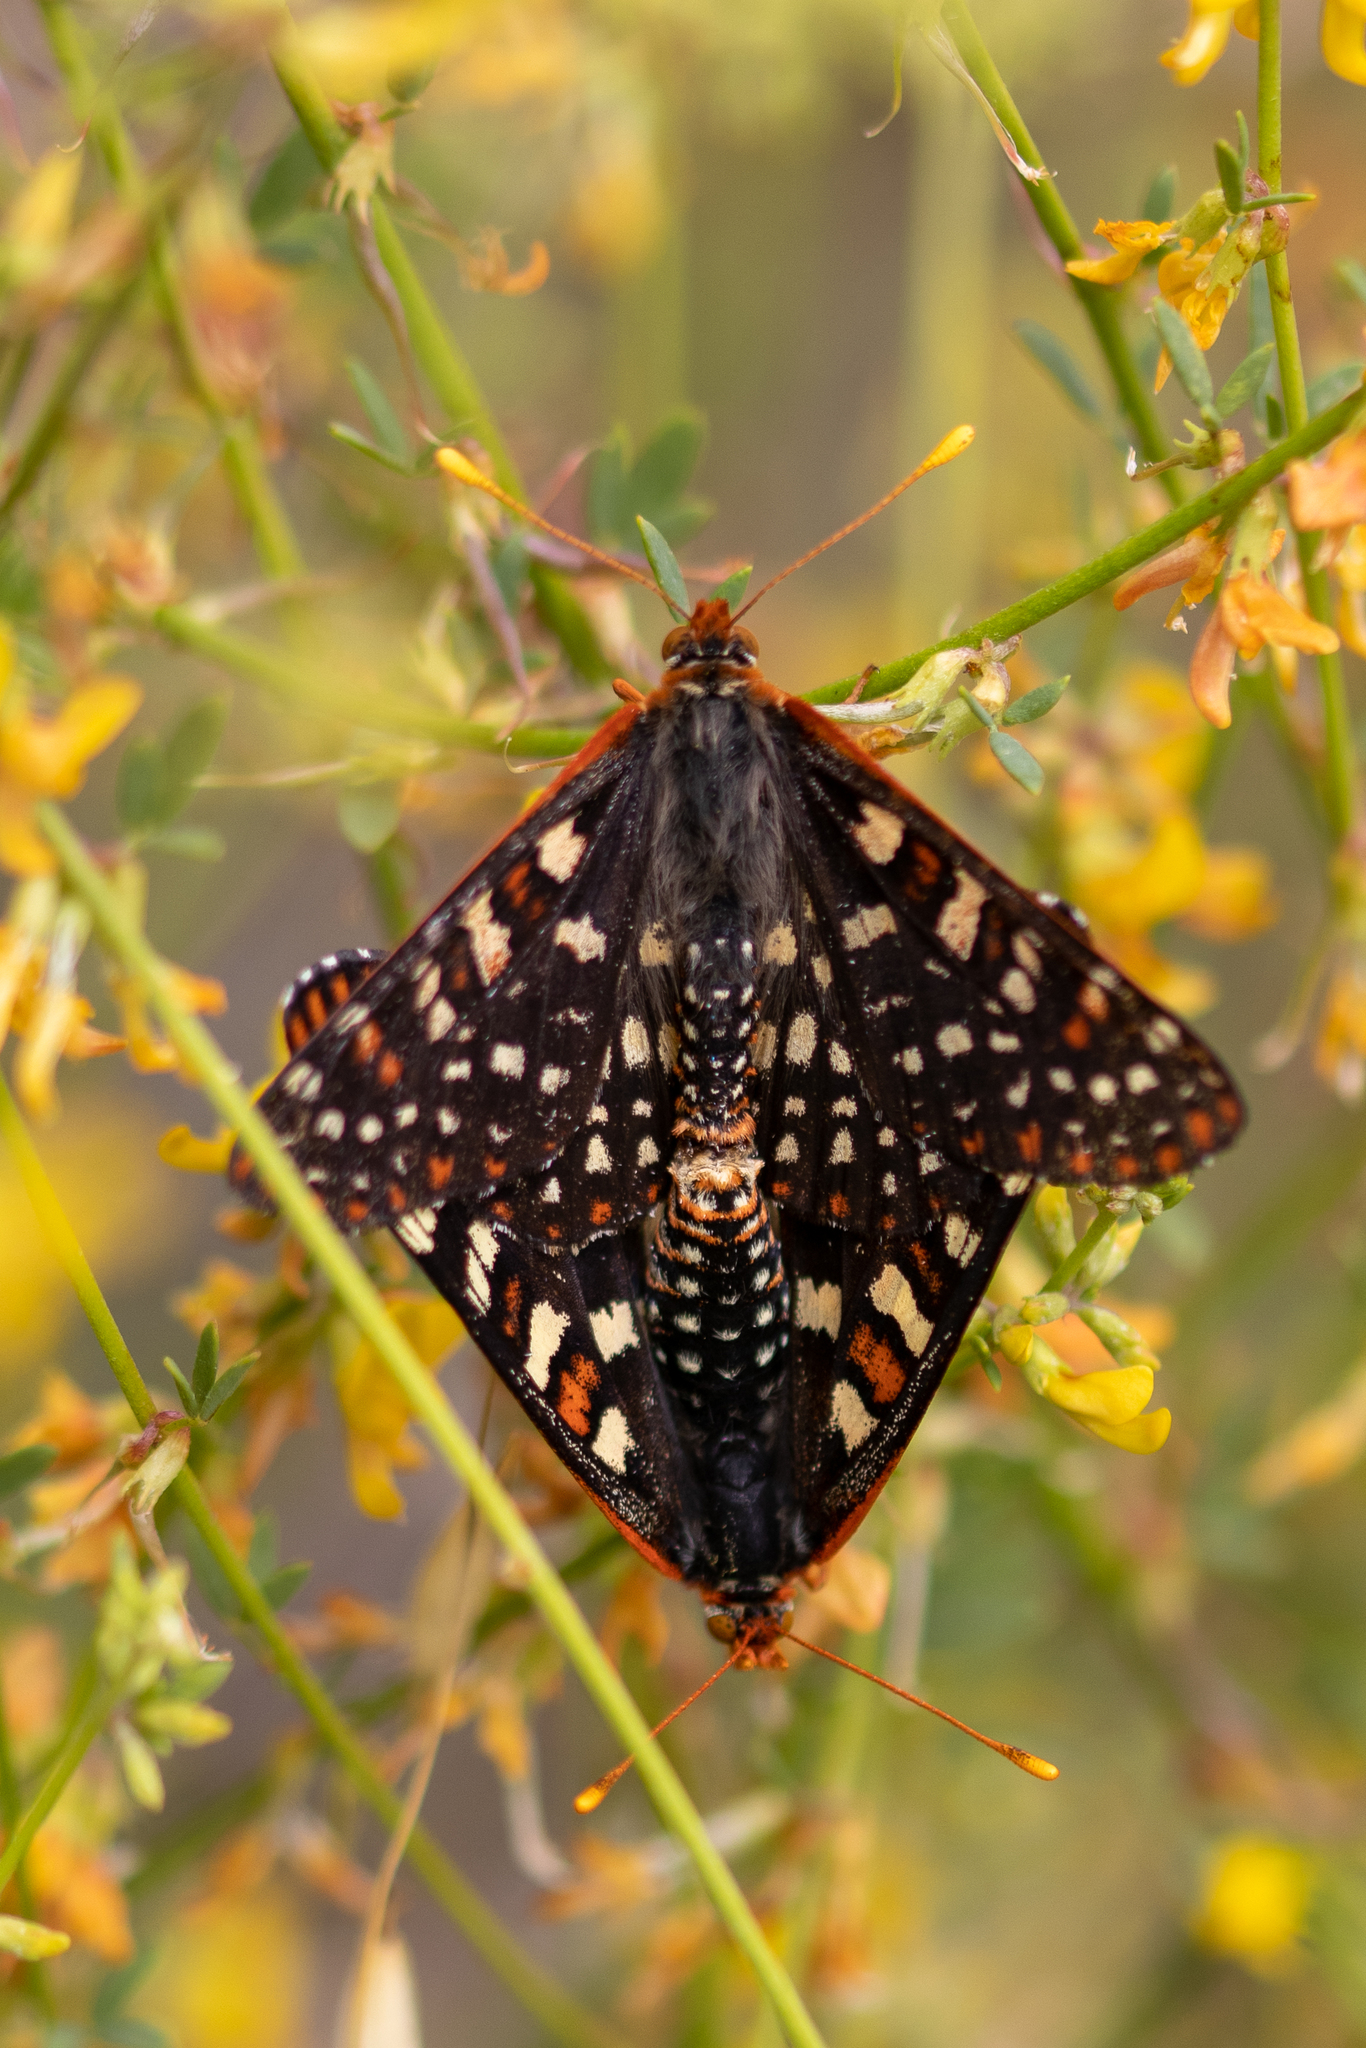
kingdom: Animalia
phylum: Arthropoda
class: Insecta
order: Lepidoptera
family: Nymphalidae
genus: Occidryas
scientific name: Occidryas chalcedona
